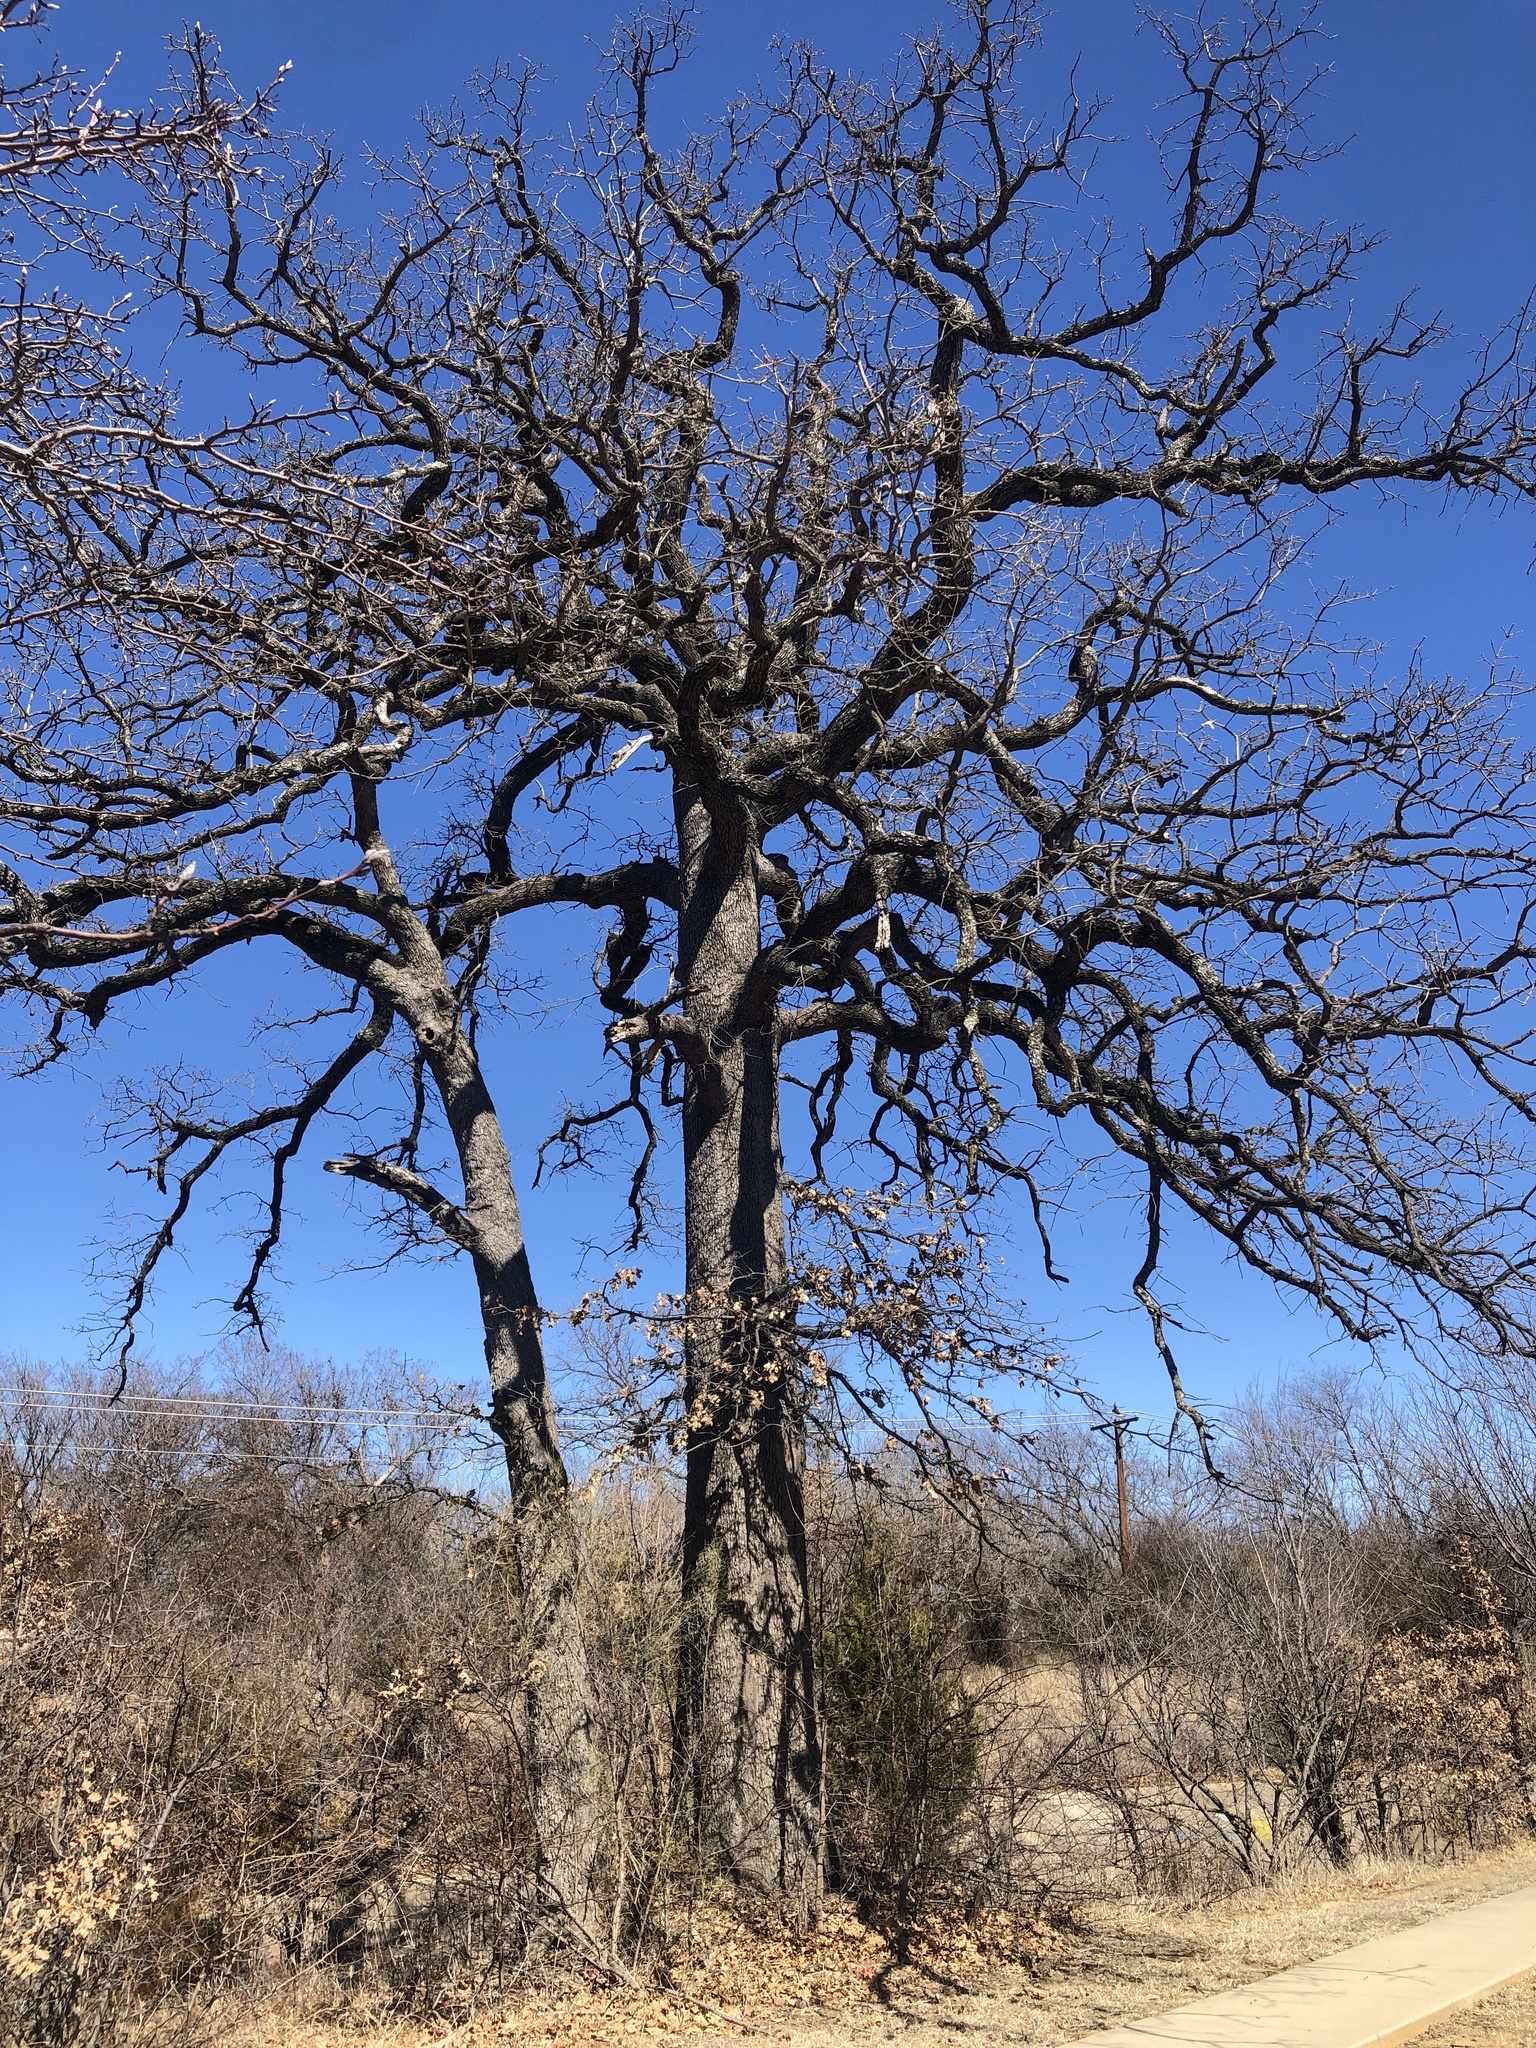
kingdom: Plantae
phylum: Tracheophyta
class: Magnoliopsida
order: Fagales
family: Fagaceae
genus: Quercus
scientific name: Quercus stellata
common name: Post oak
